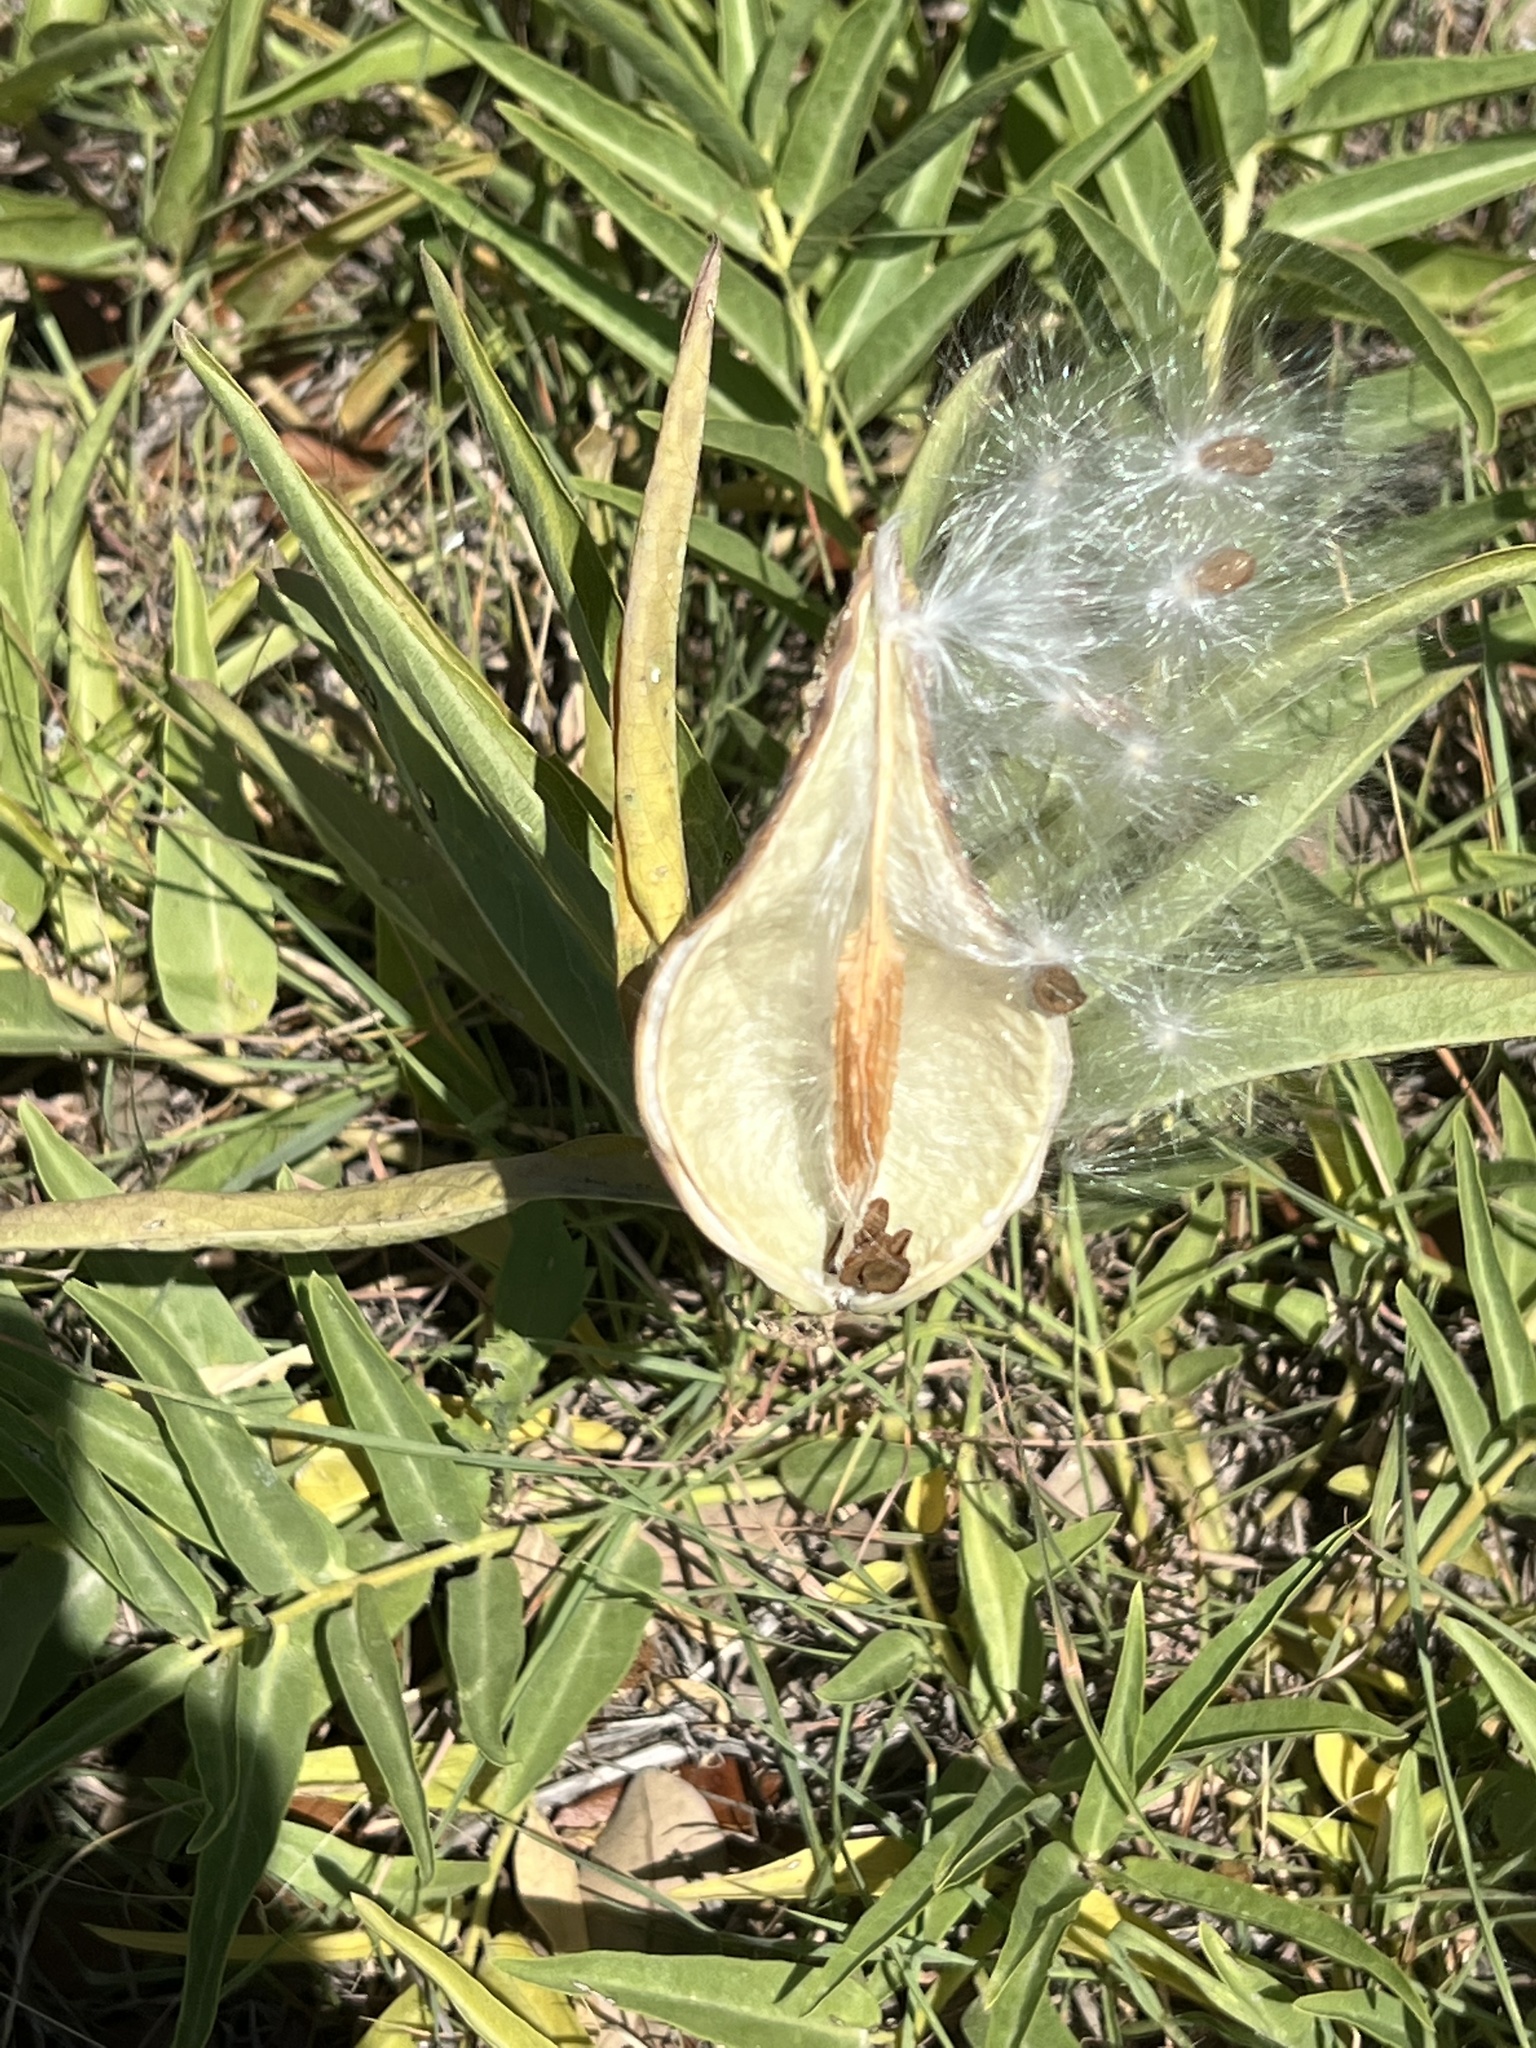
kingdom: Plantae
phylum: Tracheophyta
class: Magnoliopsida
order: Gentianales
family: Apocynaceae
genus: Asclepias
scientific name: Asclepias asperula
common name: Antelope horns
